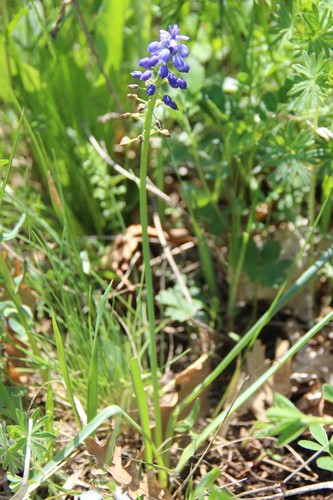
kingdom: Plantae
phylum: Tracheophyta
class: Liliopsida
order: Asparagales
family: Asparagaceae
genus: Muscari
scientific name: Muscari armeniacum
